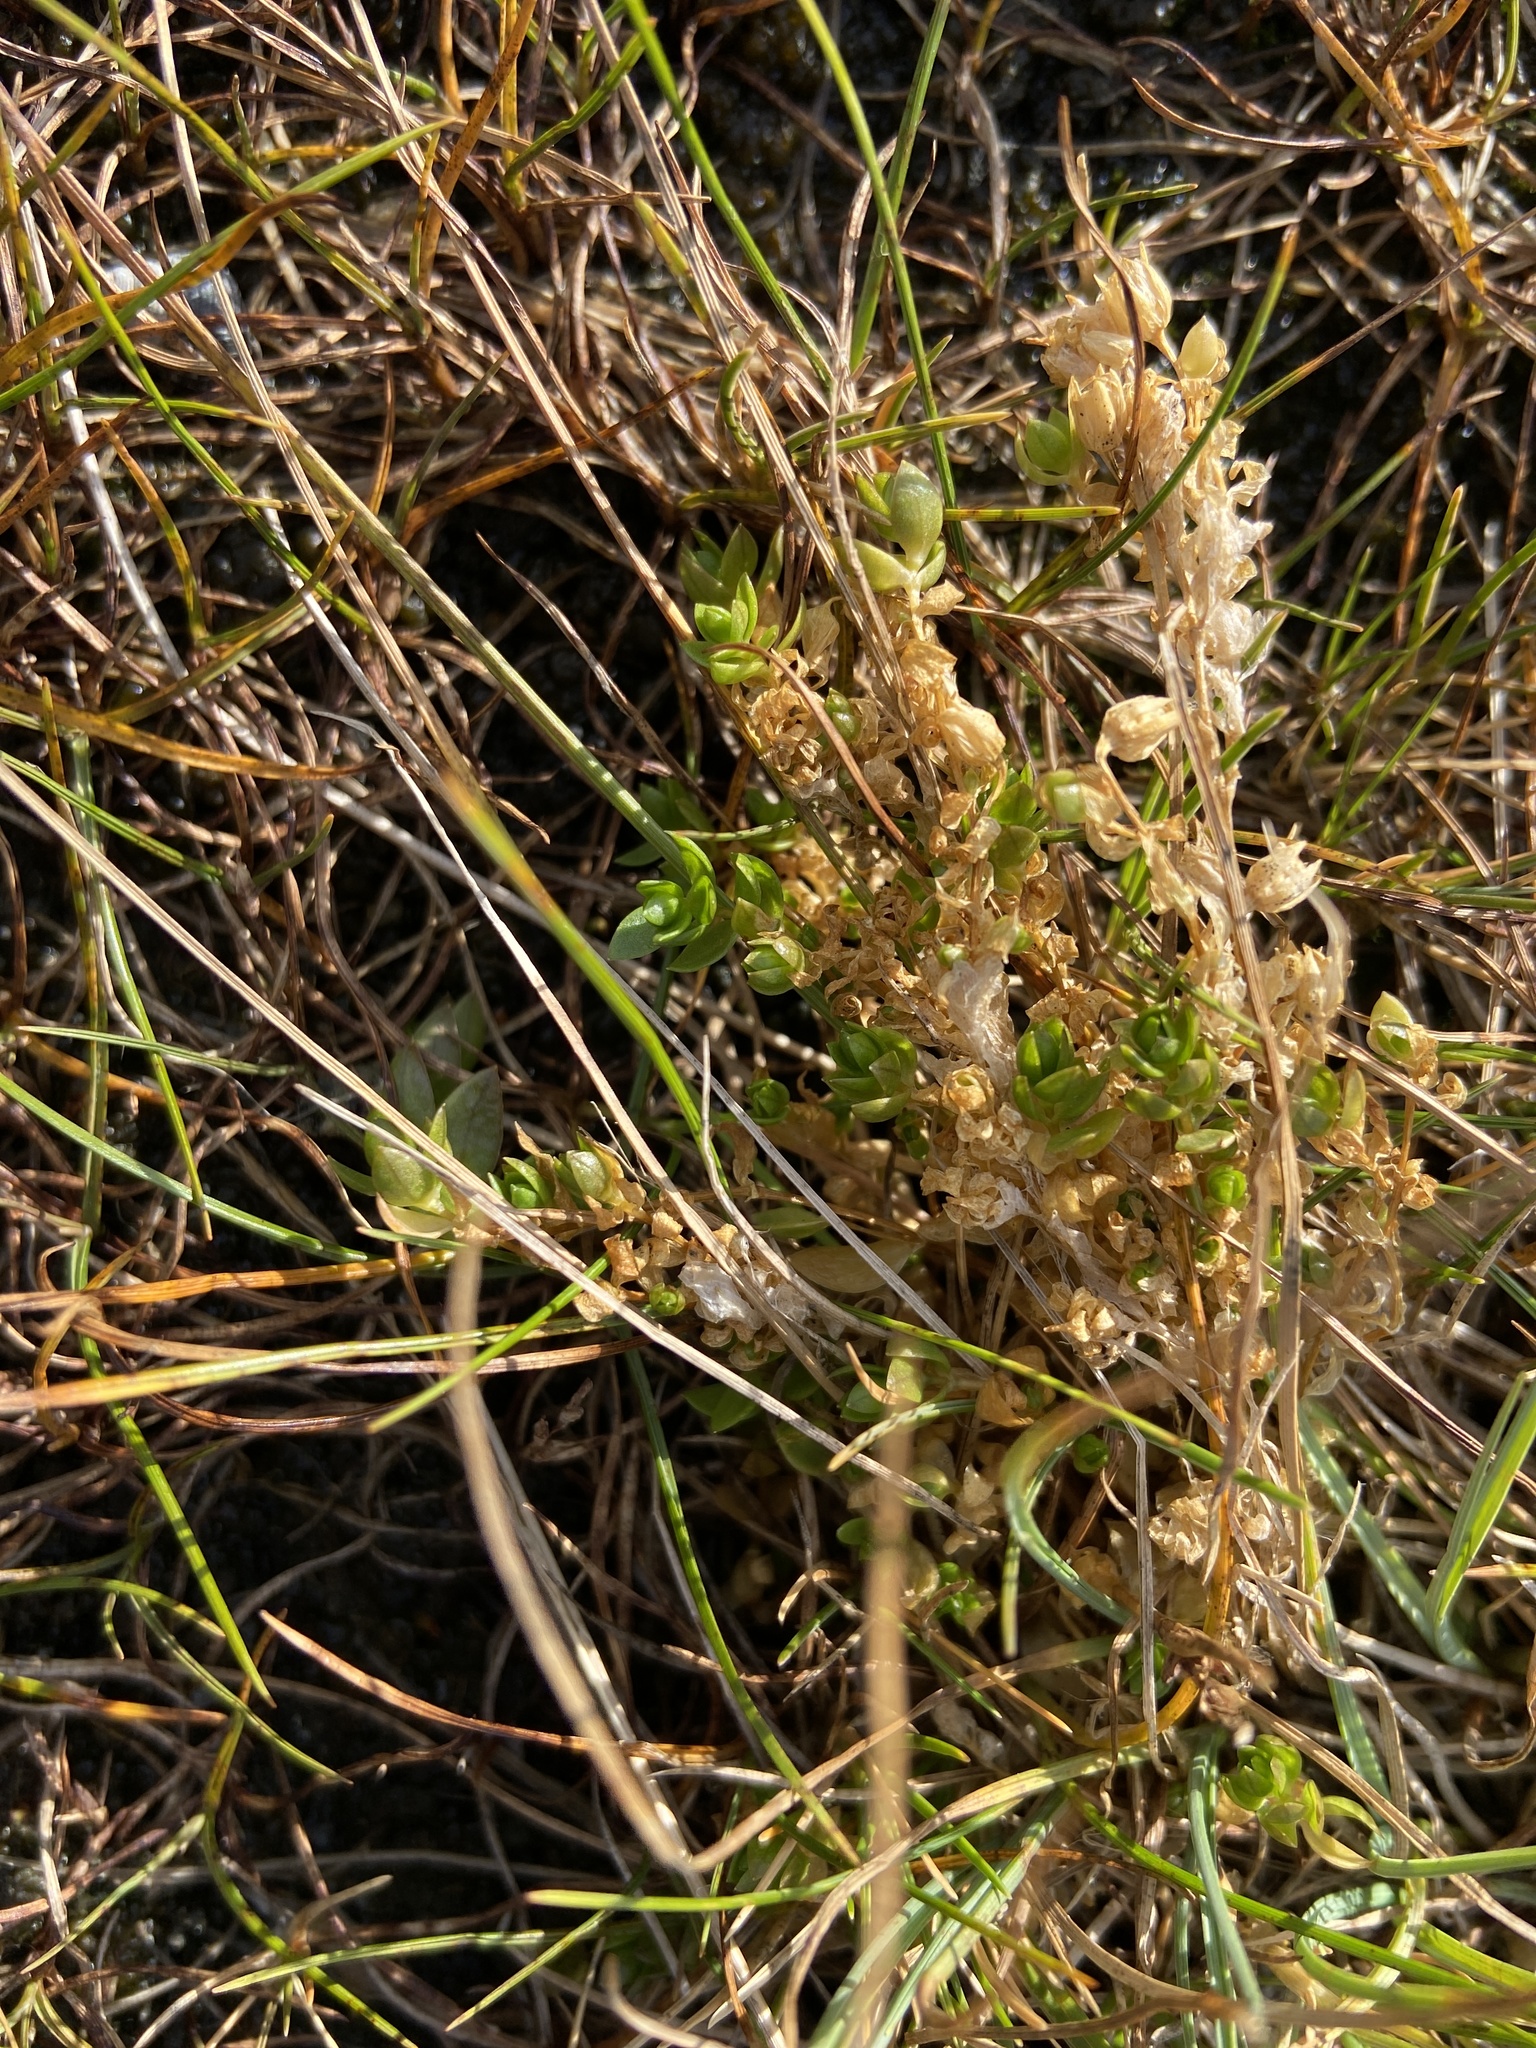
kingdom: Plantae
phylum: Tracheophyta
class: Magnoliopsida
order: Caryophyllales
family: Caryophyllaceae
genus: Stellaria
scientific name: Stellaria humifusa
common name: Creeping starwort
